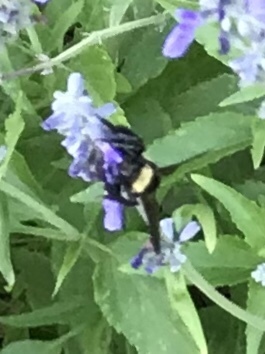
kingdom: Animalia
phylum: Arthropoda
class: Insecta
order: Hymenoptera
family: Apidae
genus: Bombus
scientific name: Bombus pensylvanicus
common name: Bumble bee
